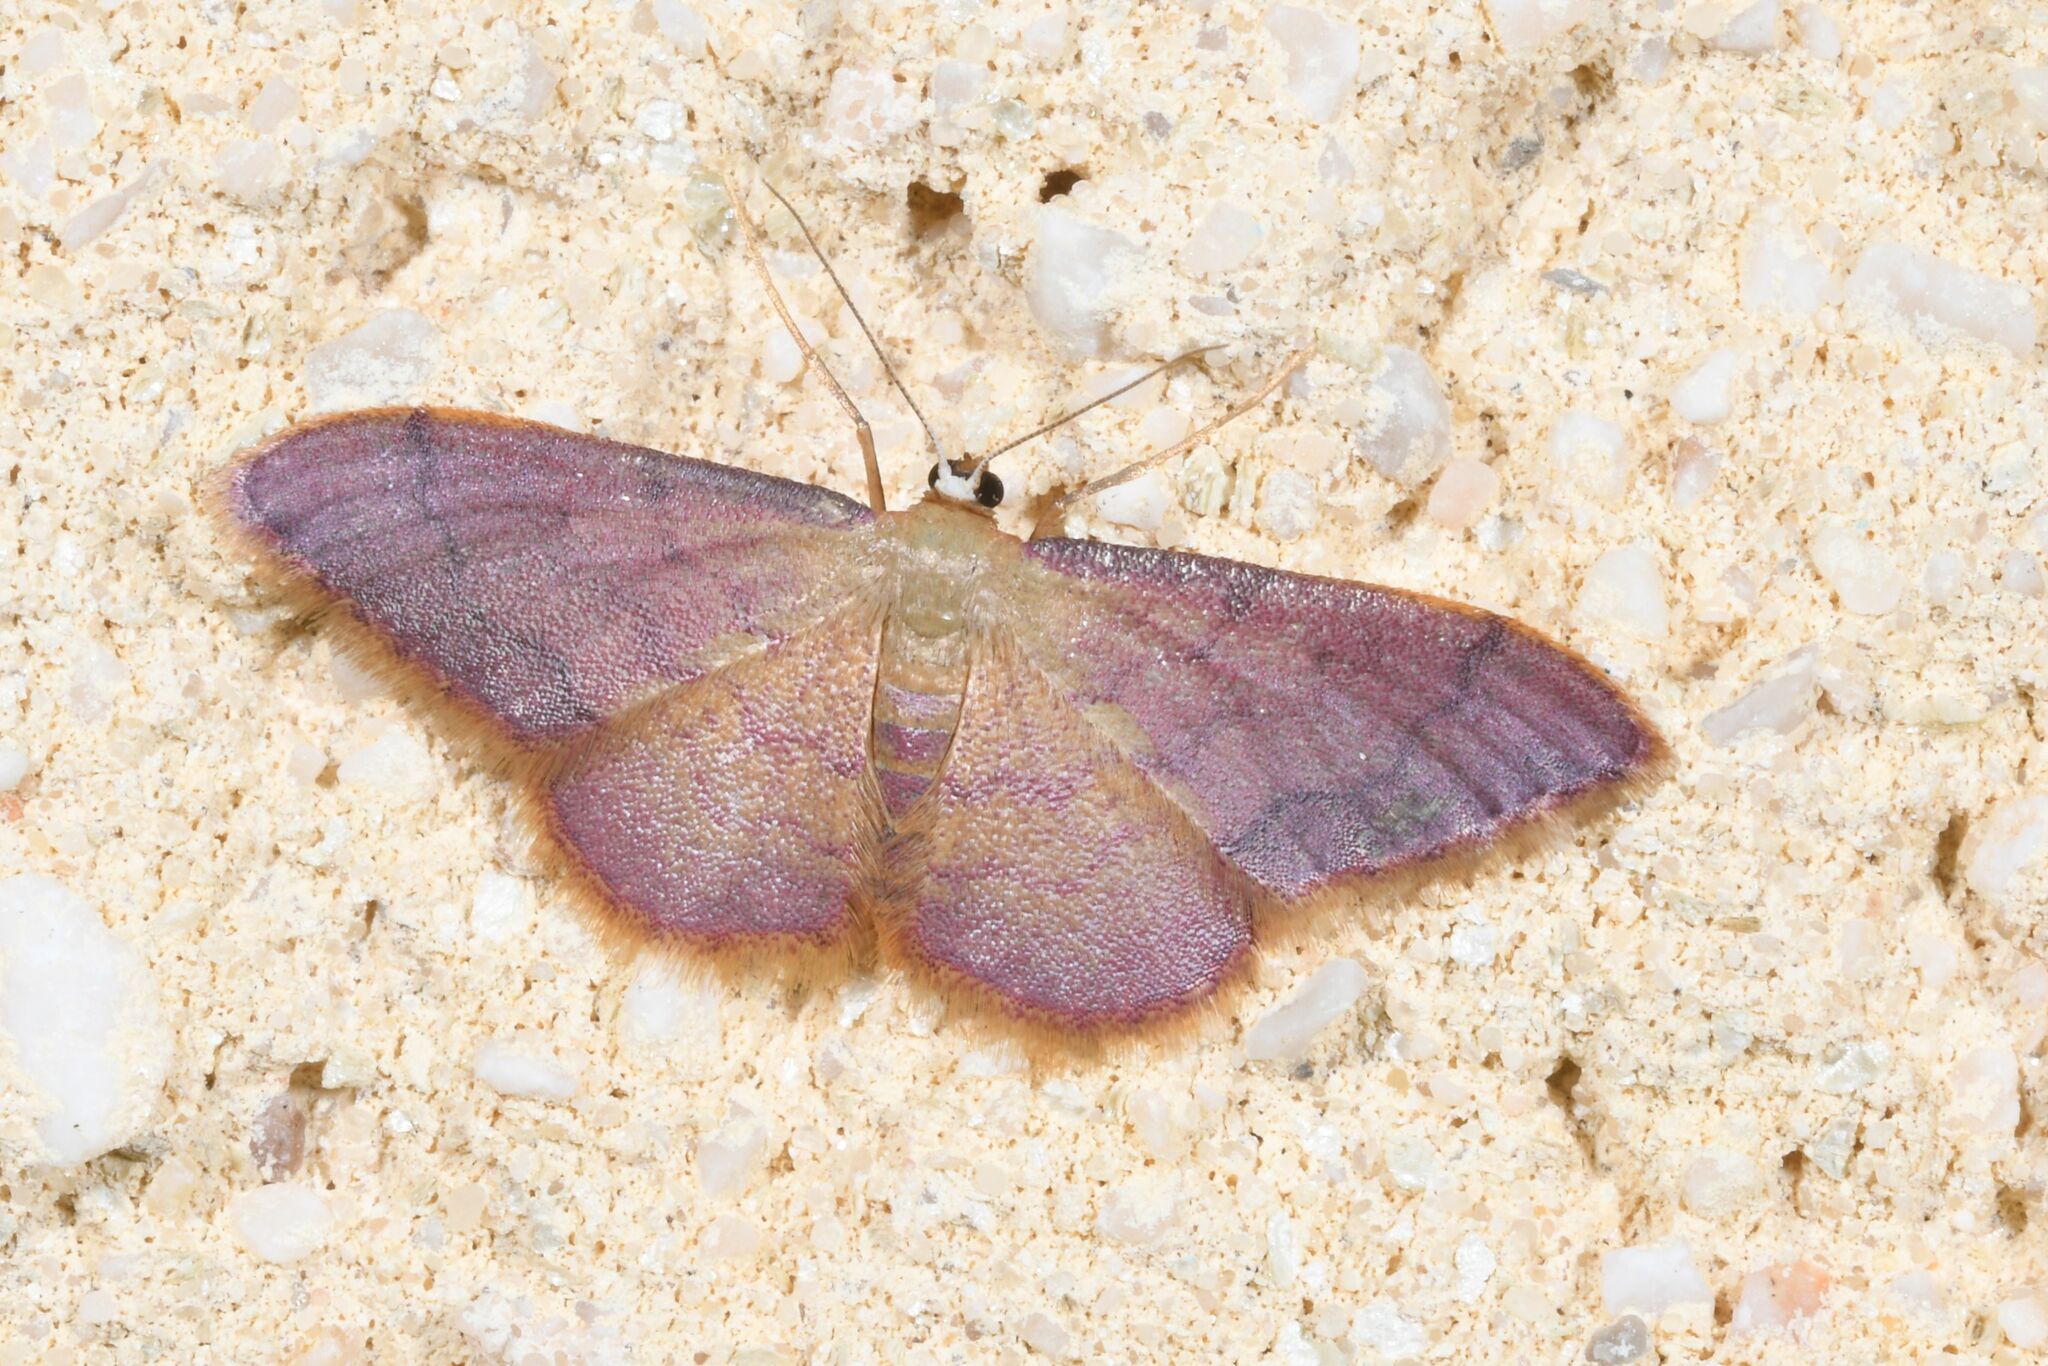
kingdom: Animalia
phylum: Arthropoda
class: Insecta
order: Lepidoptera
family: Geometridae
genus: Idaea
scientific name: Idaea ostrinaria
